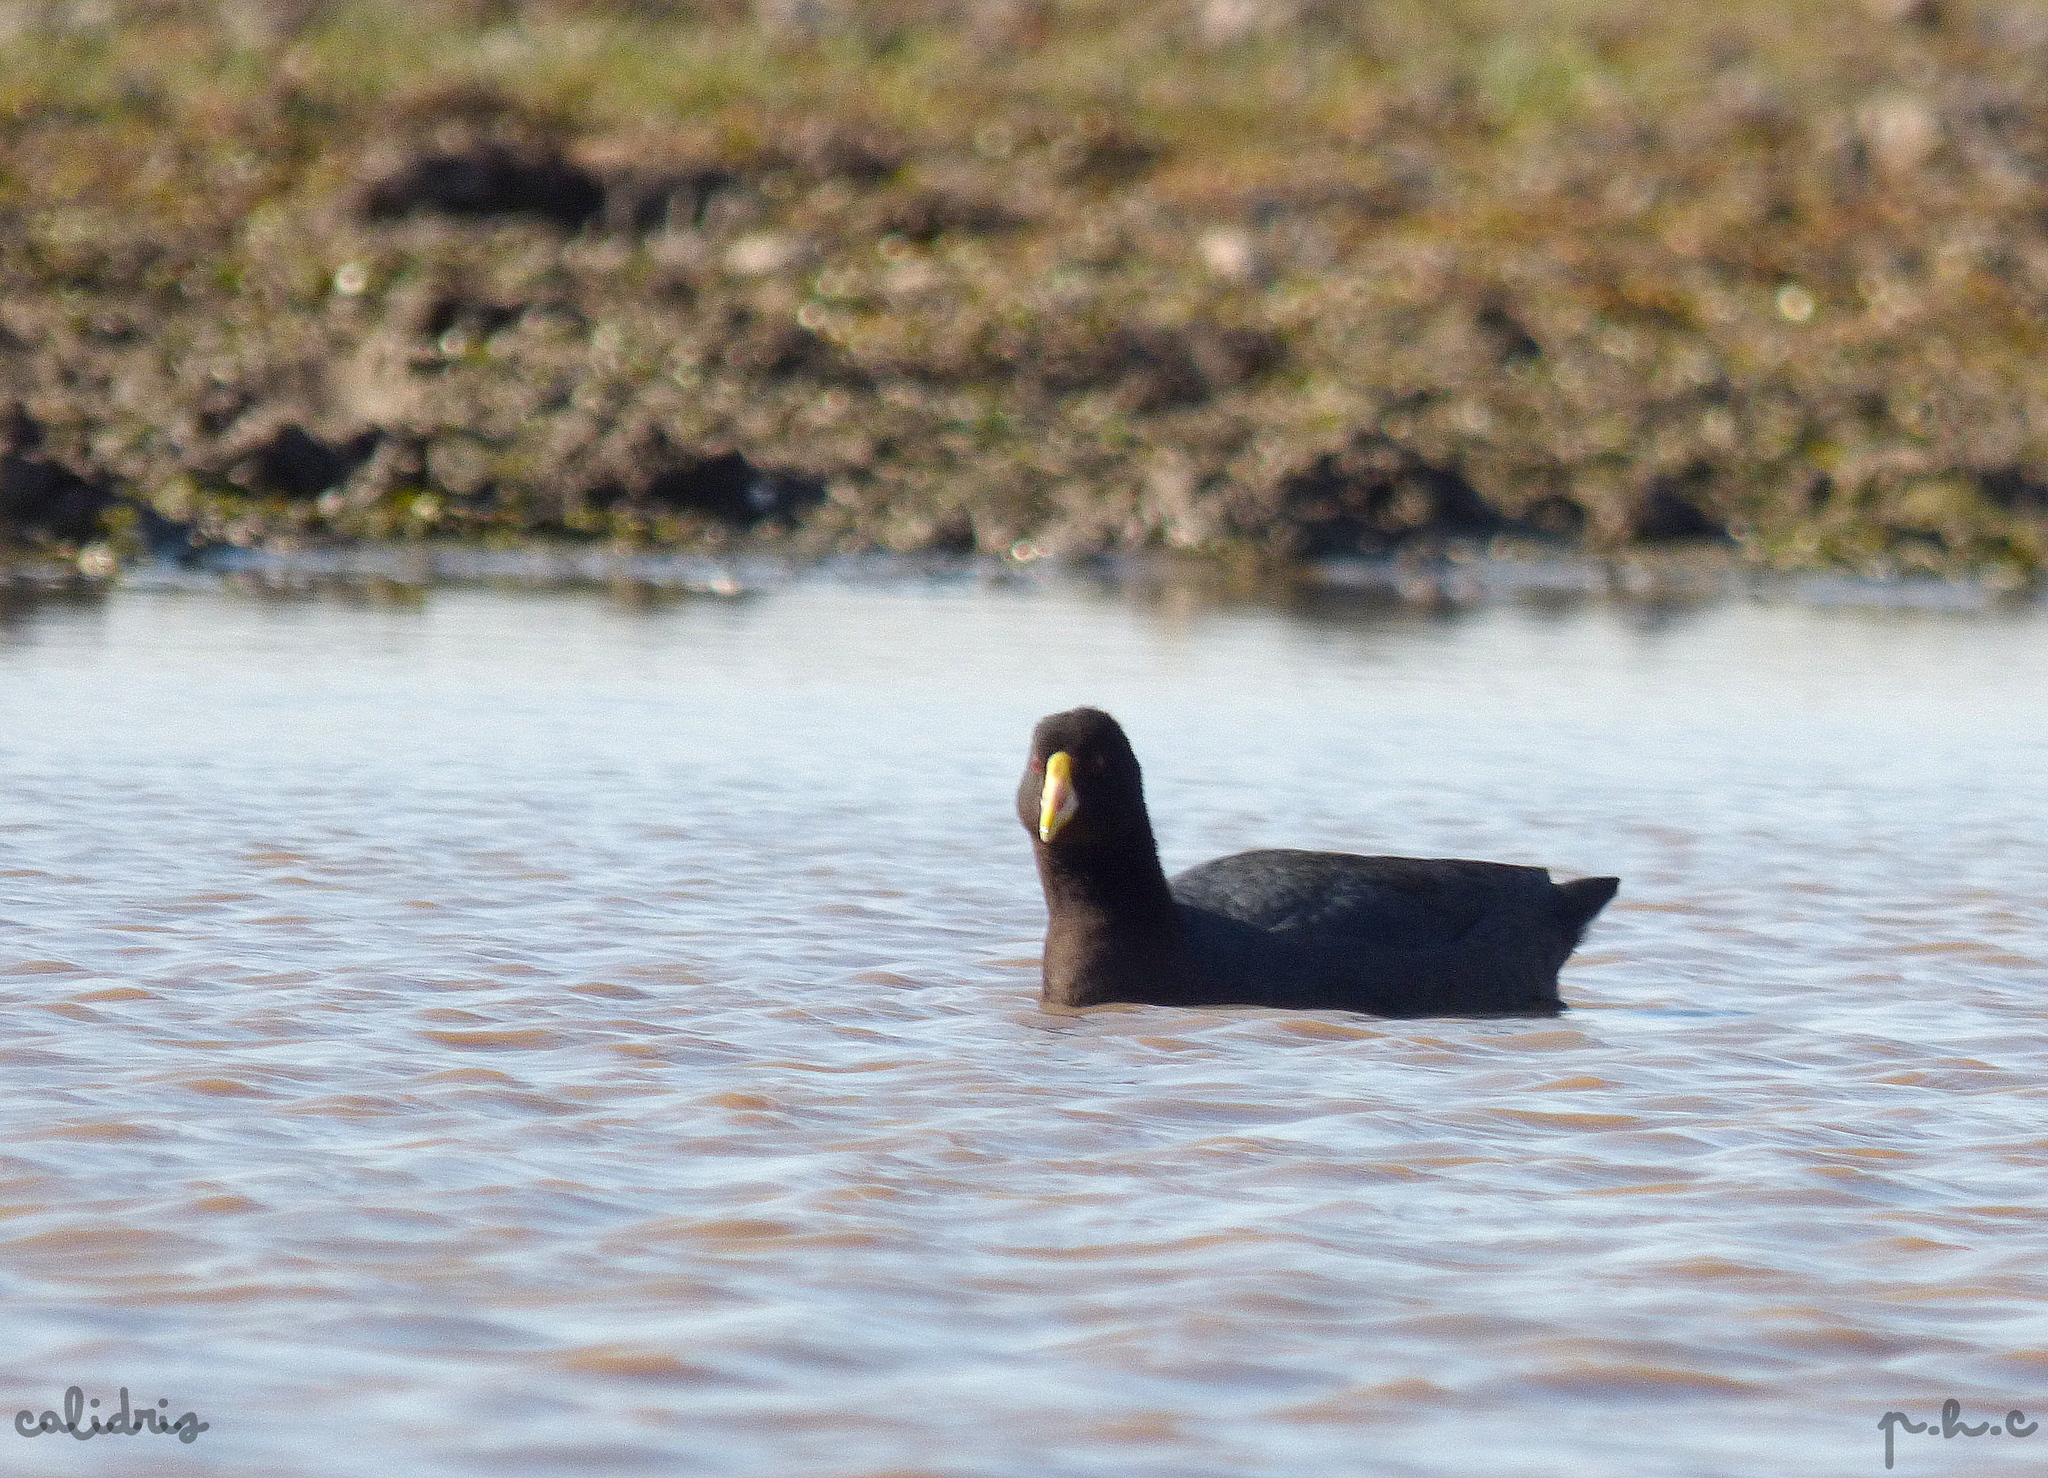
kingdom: Animalia
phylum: Chordata
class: Aves
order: Gruiformes
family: Rallidae
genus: Fulica
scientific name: Fulica leucoptera
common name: White-winged coot
